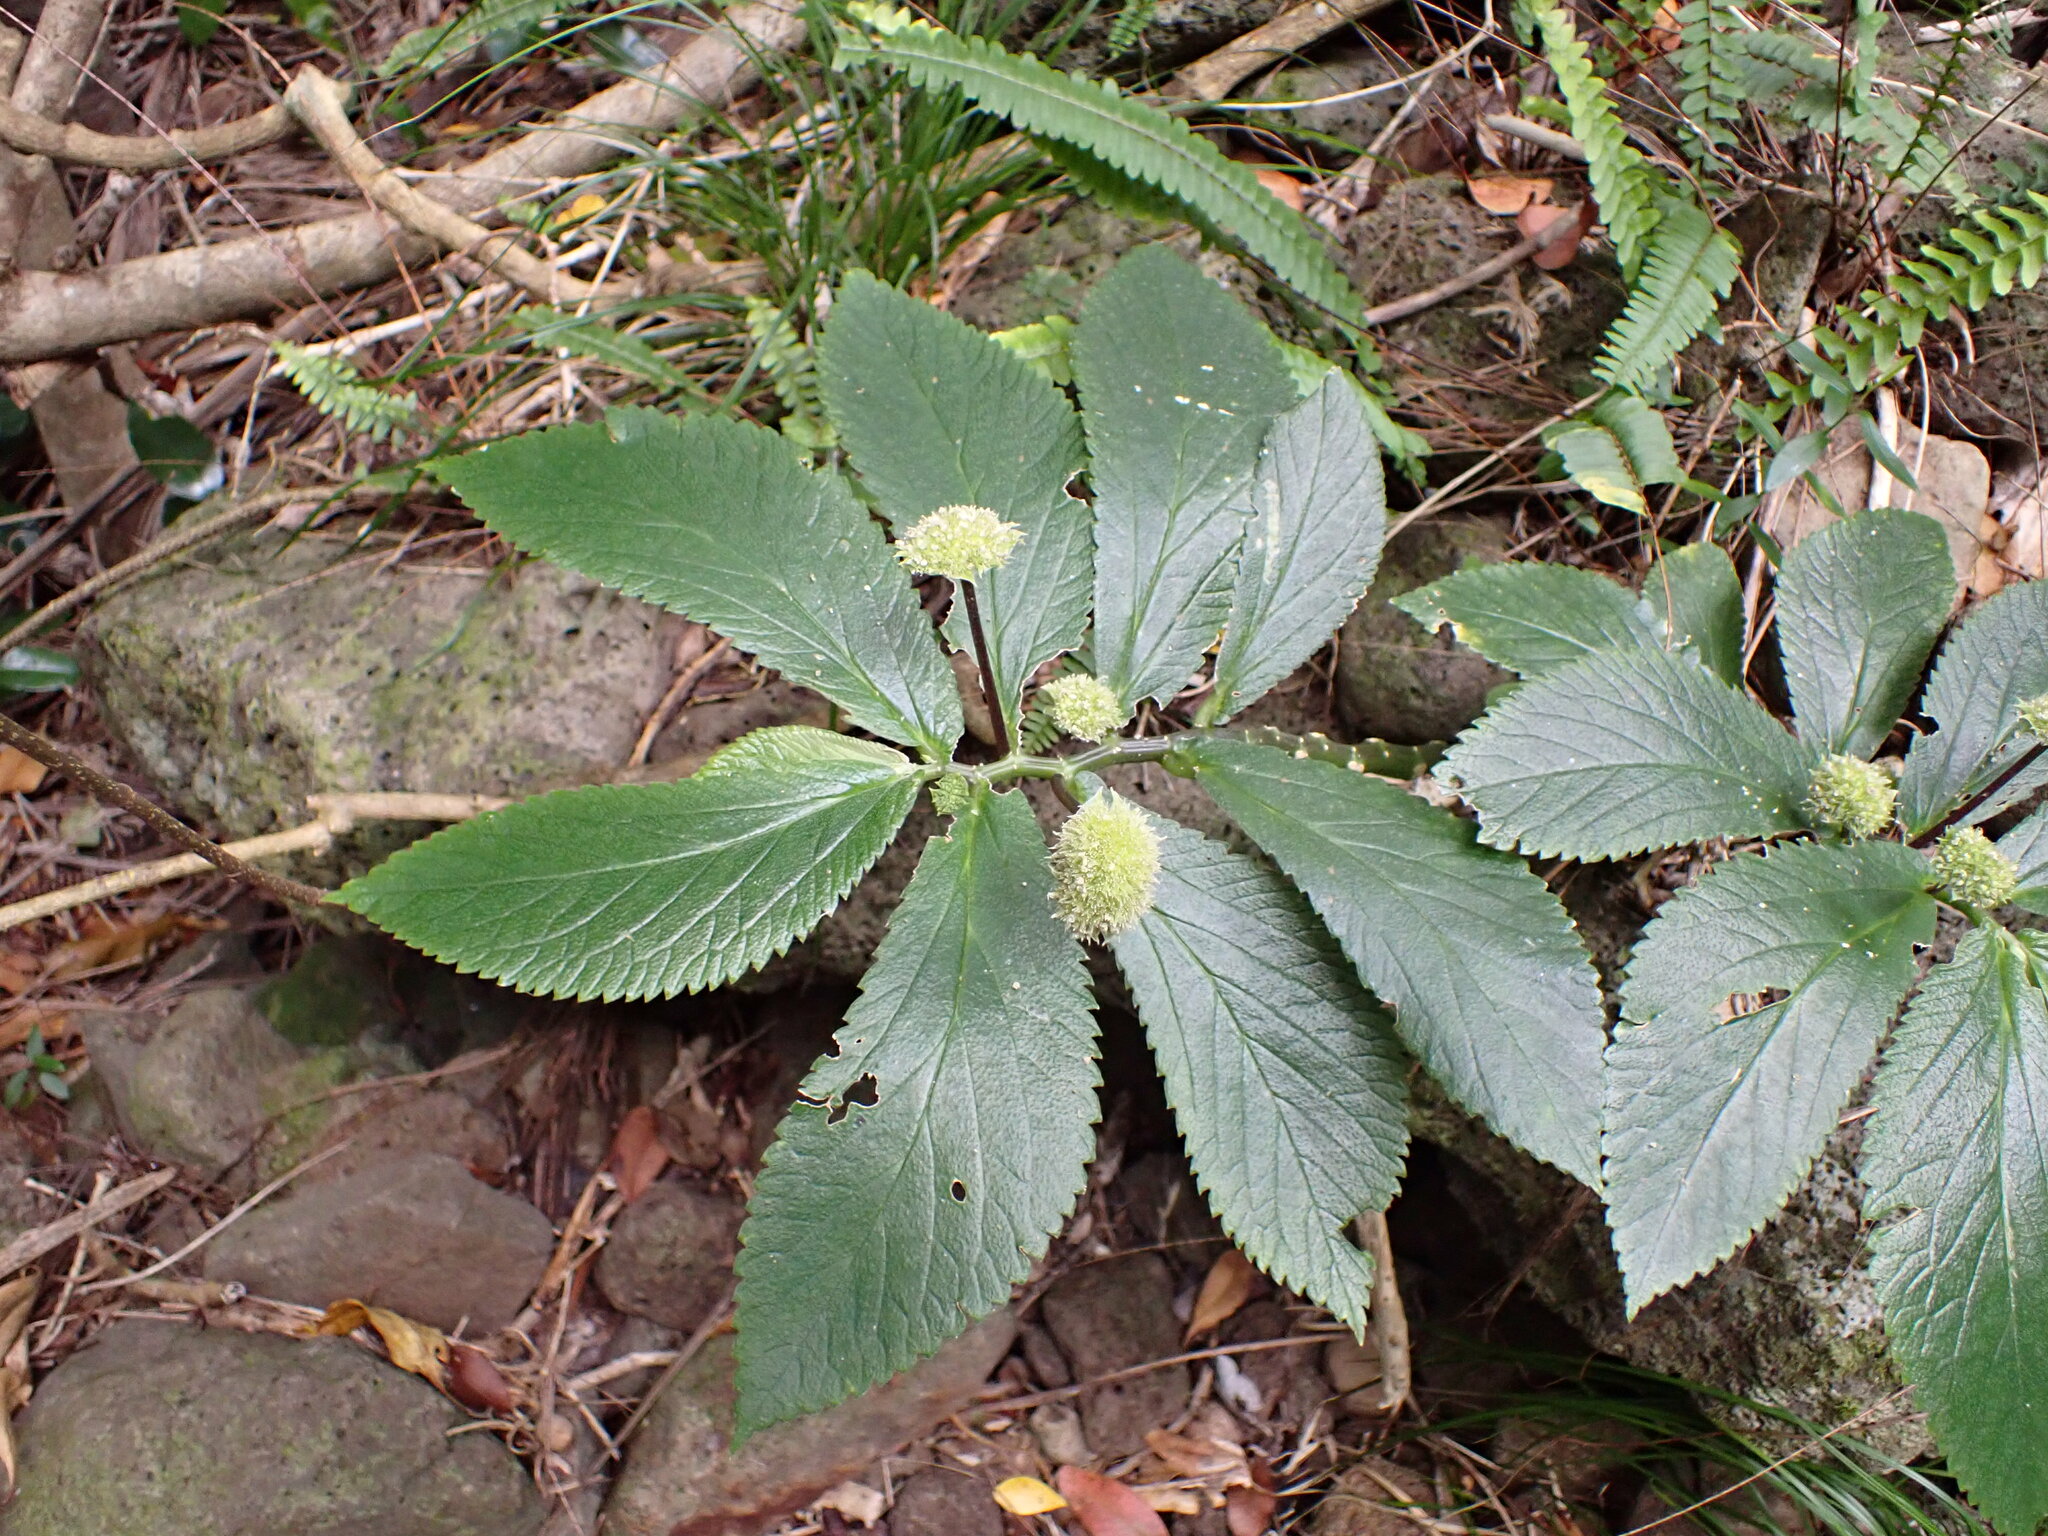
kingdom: Plantae
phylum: Tracheophyta
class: Magnoliopsida
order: Rosales
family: Urticaceae
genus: Elatostema
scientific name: Elatostema grande
